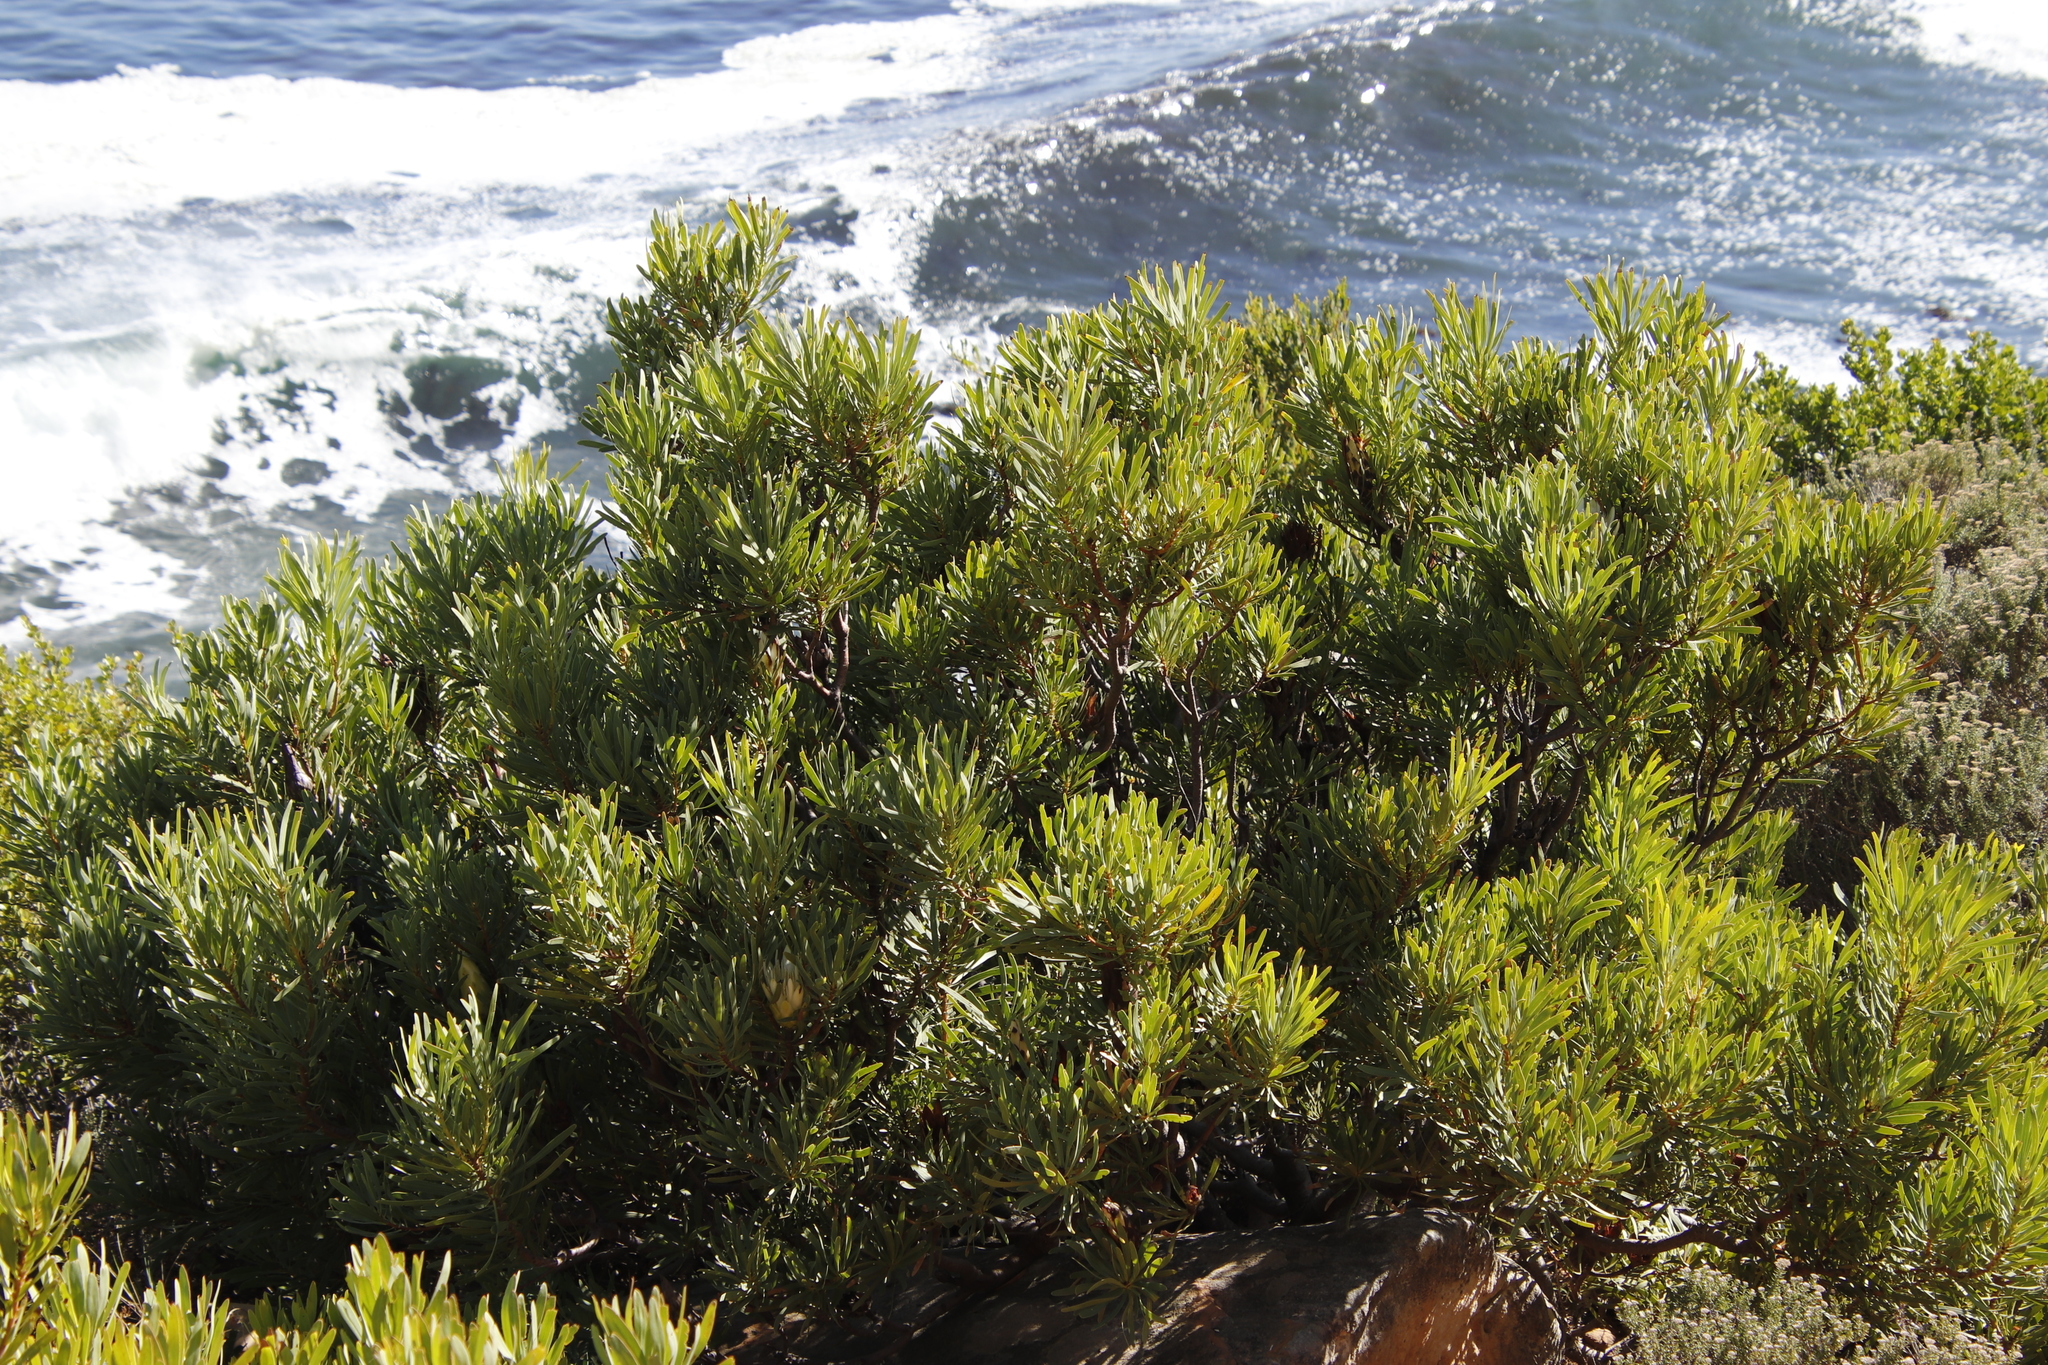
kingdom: Plantae
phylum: Tracheophyta
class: Magnoliopsida
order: Proteales
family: Proteaceae
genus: Protea
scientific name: Protea neriifolia
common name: Blue sugarbush
